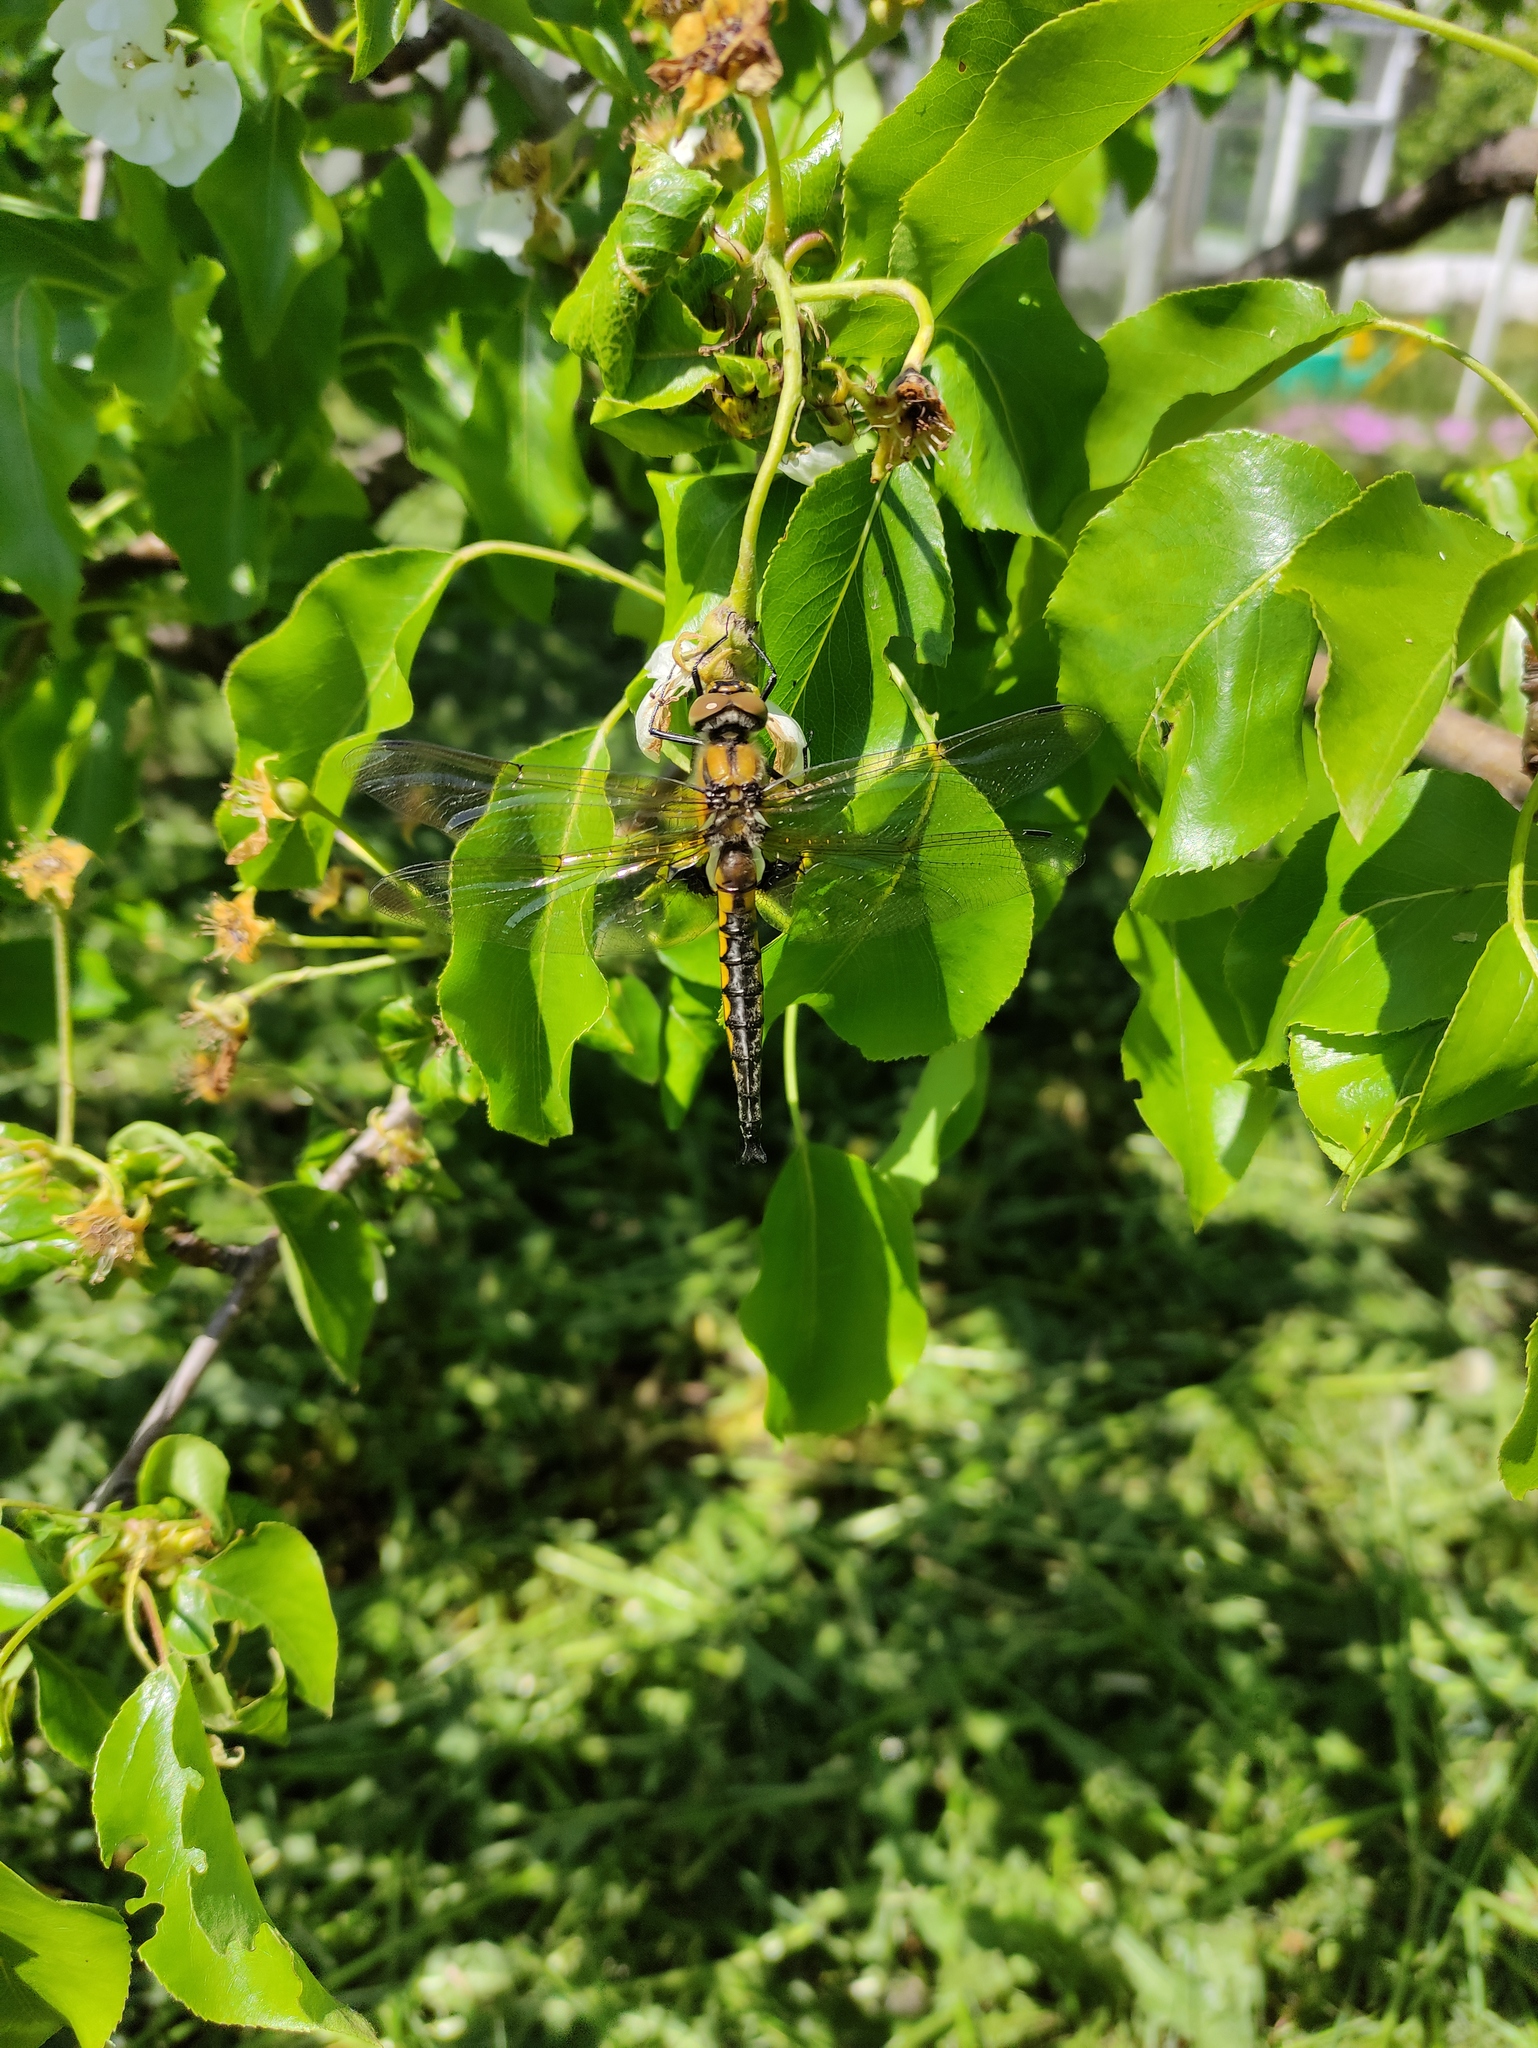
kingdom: Animalia
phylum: Arthropoda
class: Insecta
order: Odonata
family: Corduliidae
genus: Epitheca
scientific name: Epitheca bimaculata
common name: Eurasian baskettail
